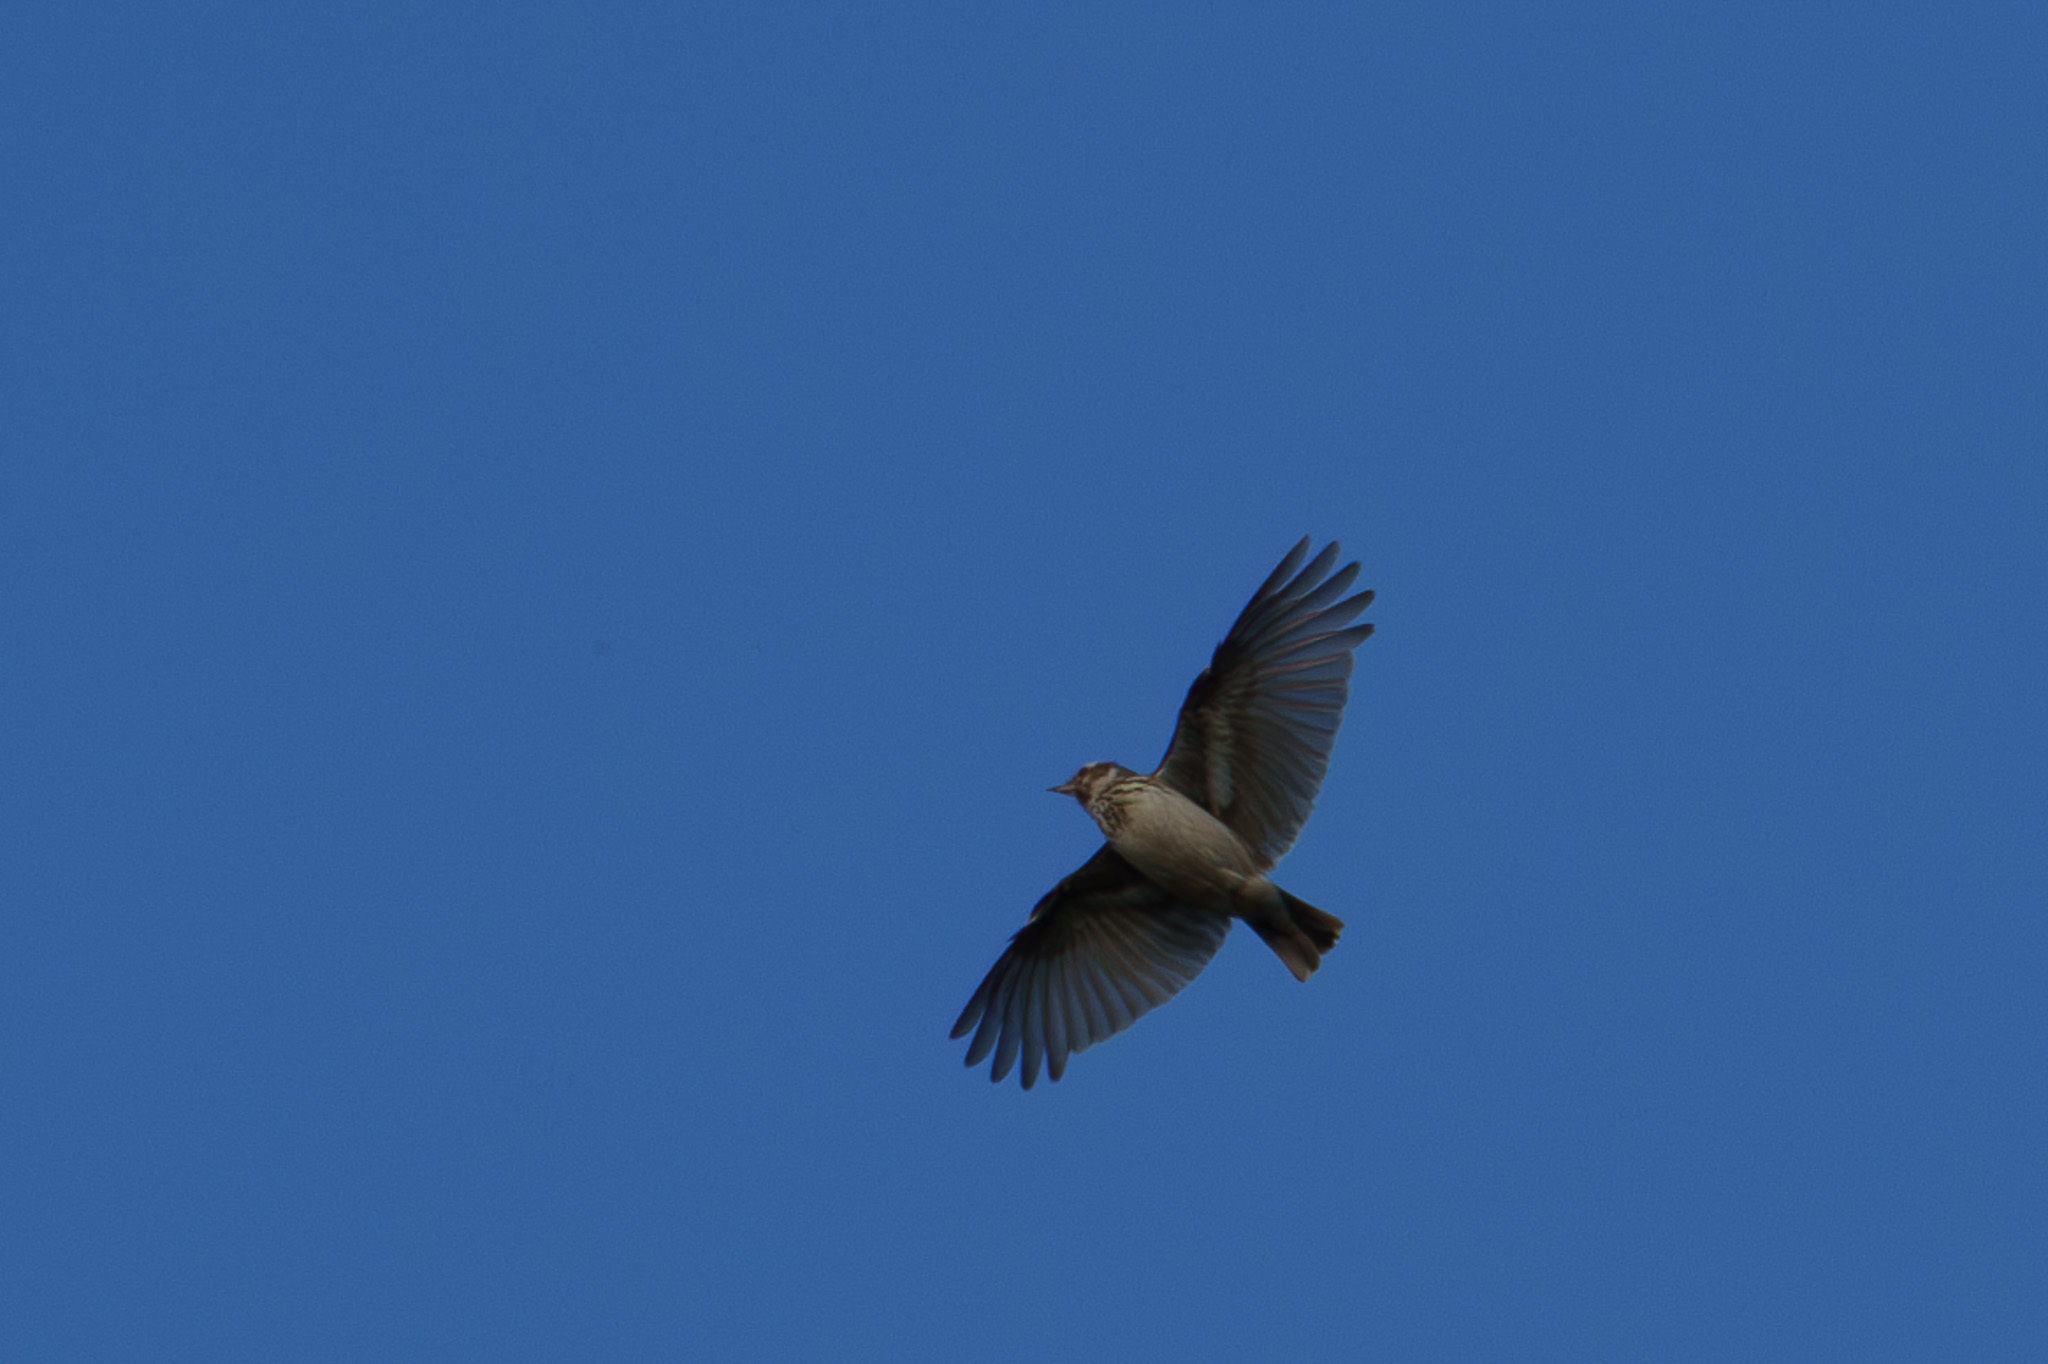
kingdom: Animalia
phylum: Chordata
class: Aves
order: Passeriformes
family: Alaudidae
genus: Lullula
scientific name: Lullula arborea
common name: Woodlark
